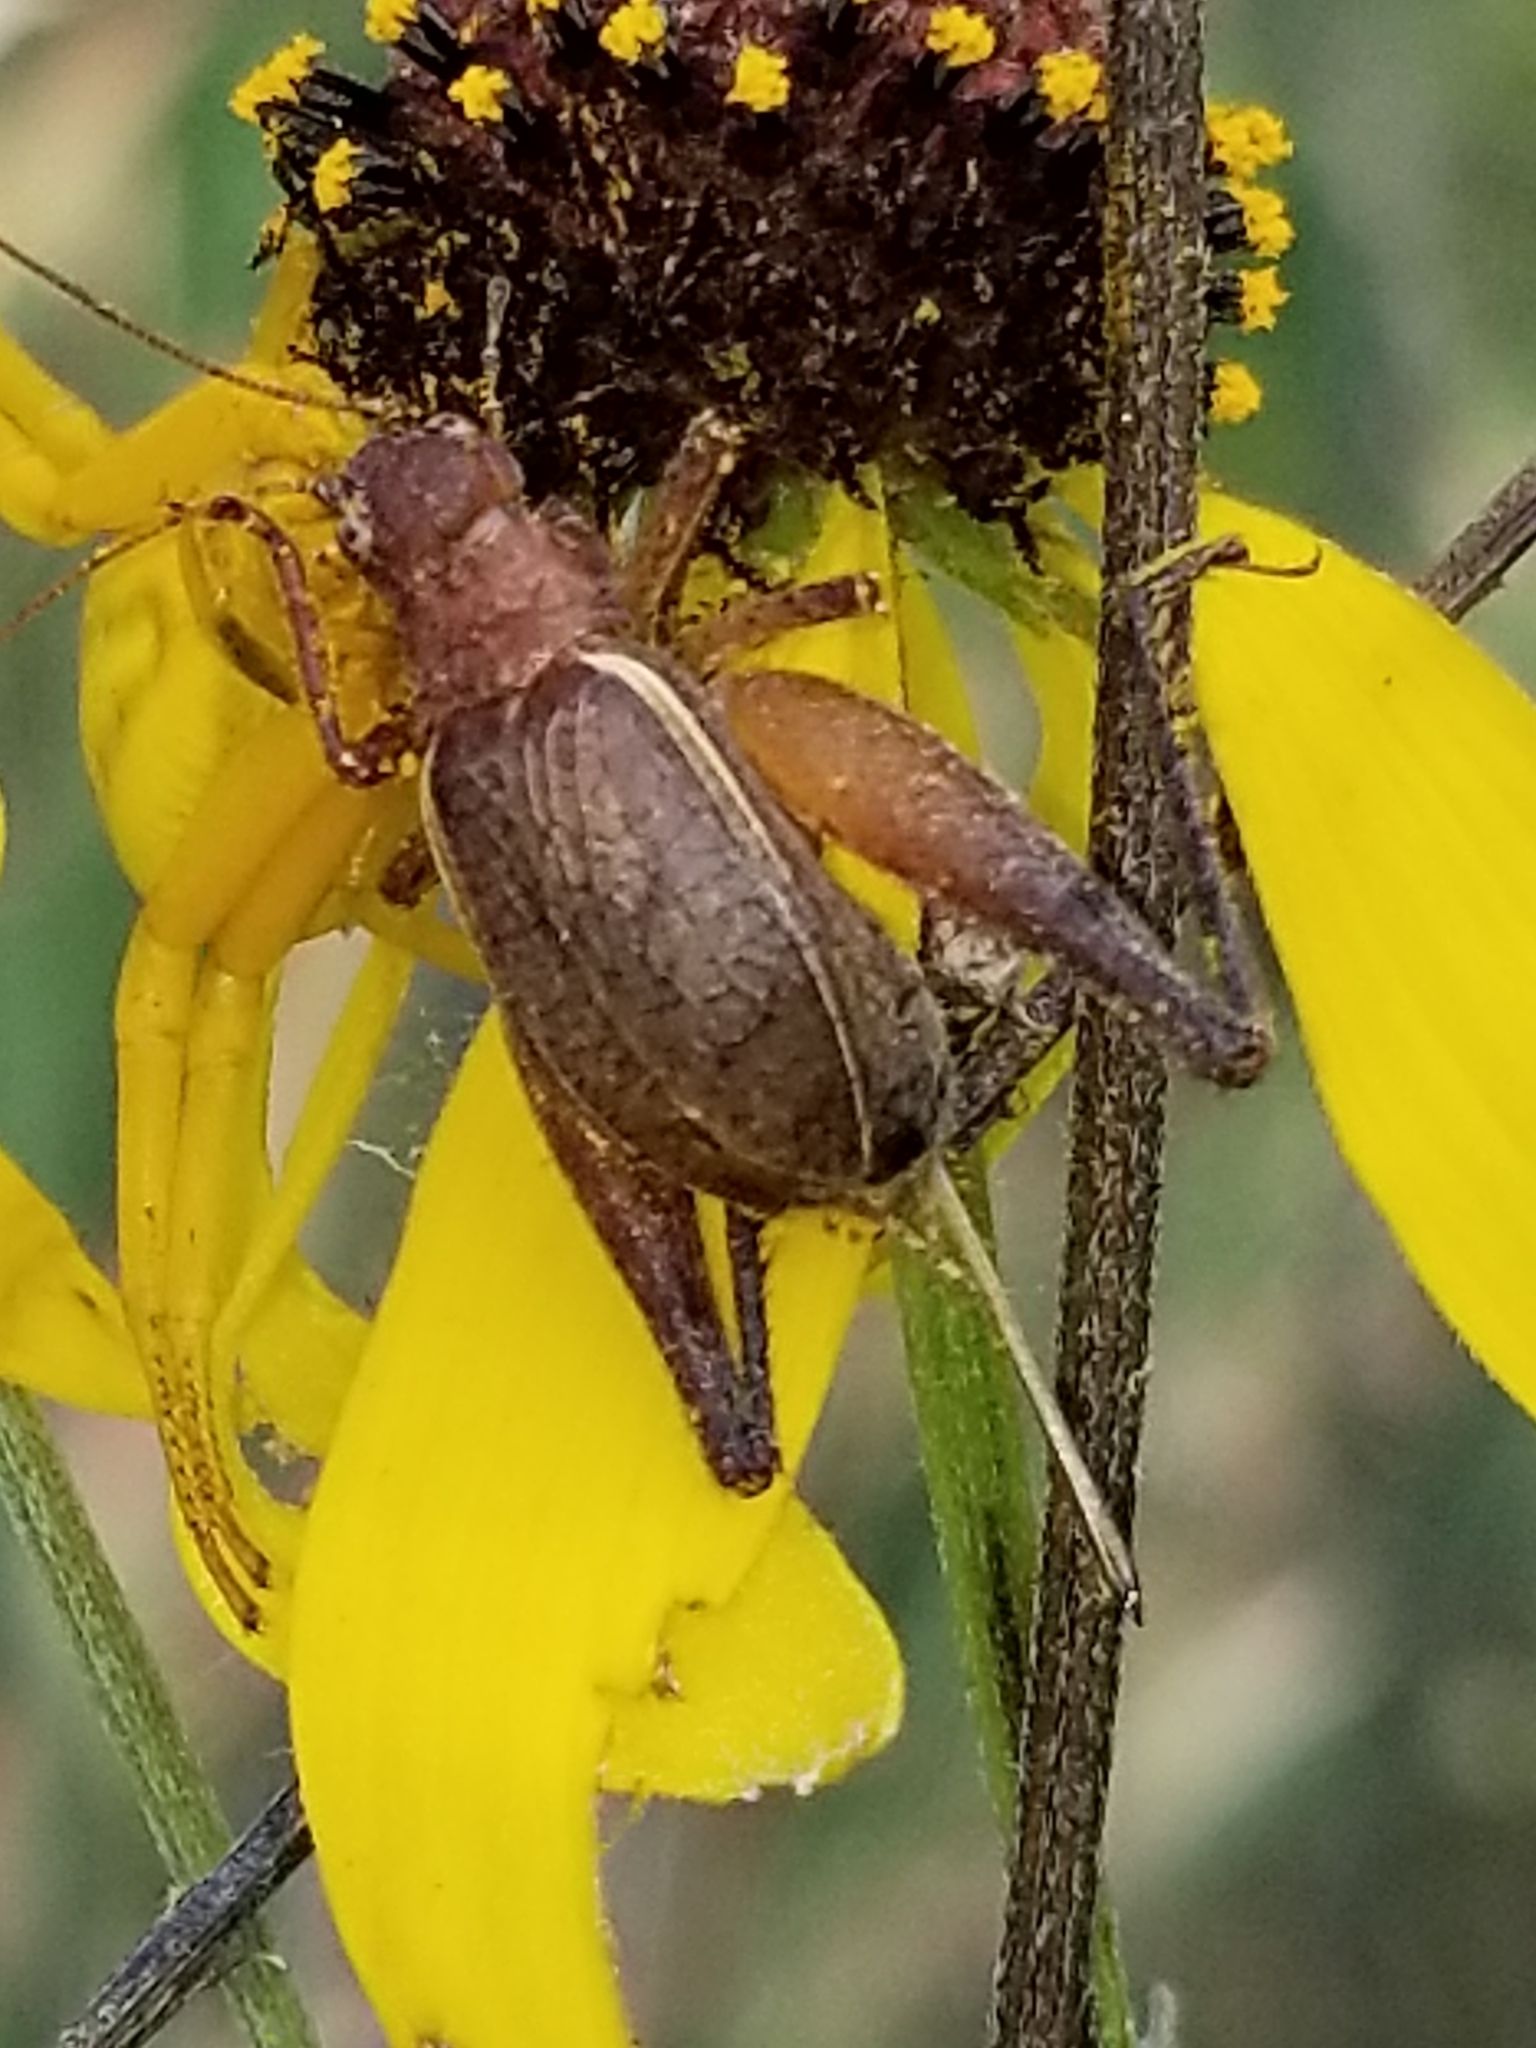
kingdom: Animalia
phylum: Arthropoda
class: Insecta
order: Orthoptera
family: Gryllidae
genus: Hapithus
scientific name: Hapithus agitator
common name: Restless bush cricket
